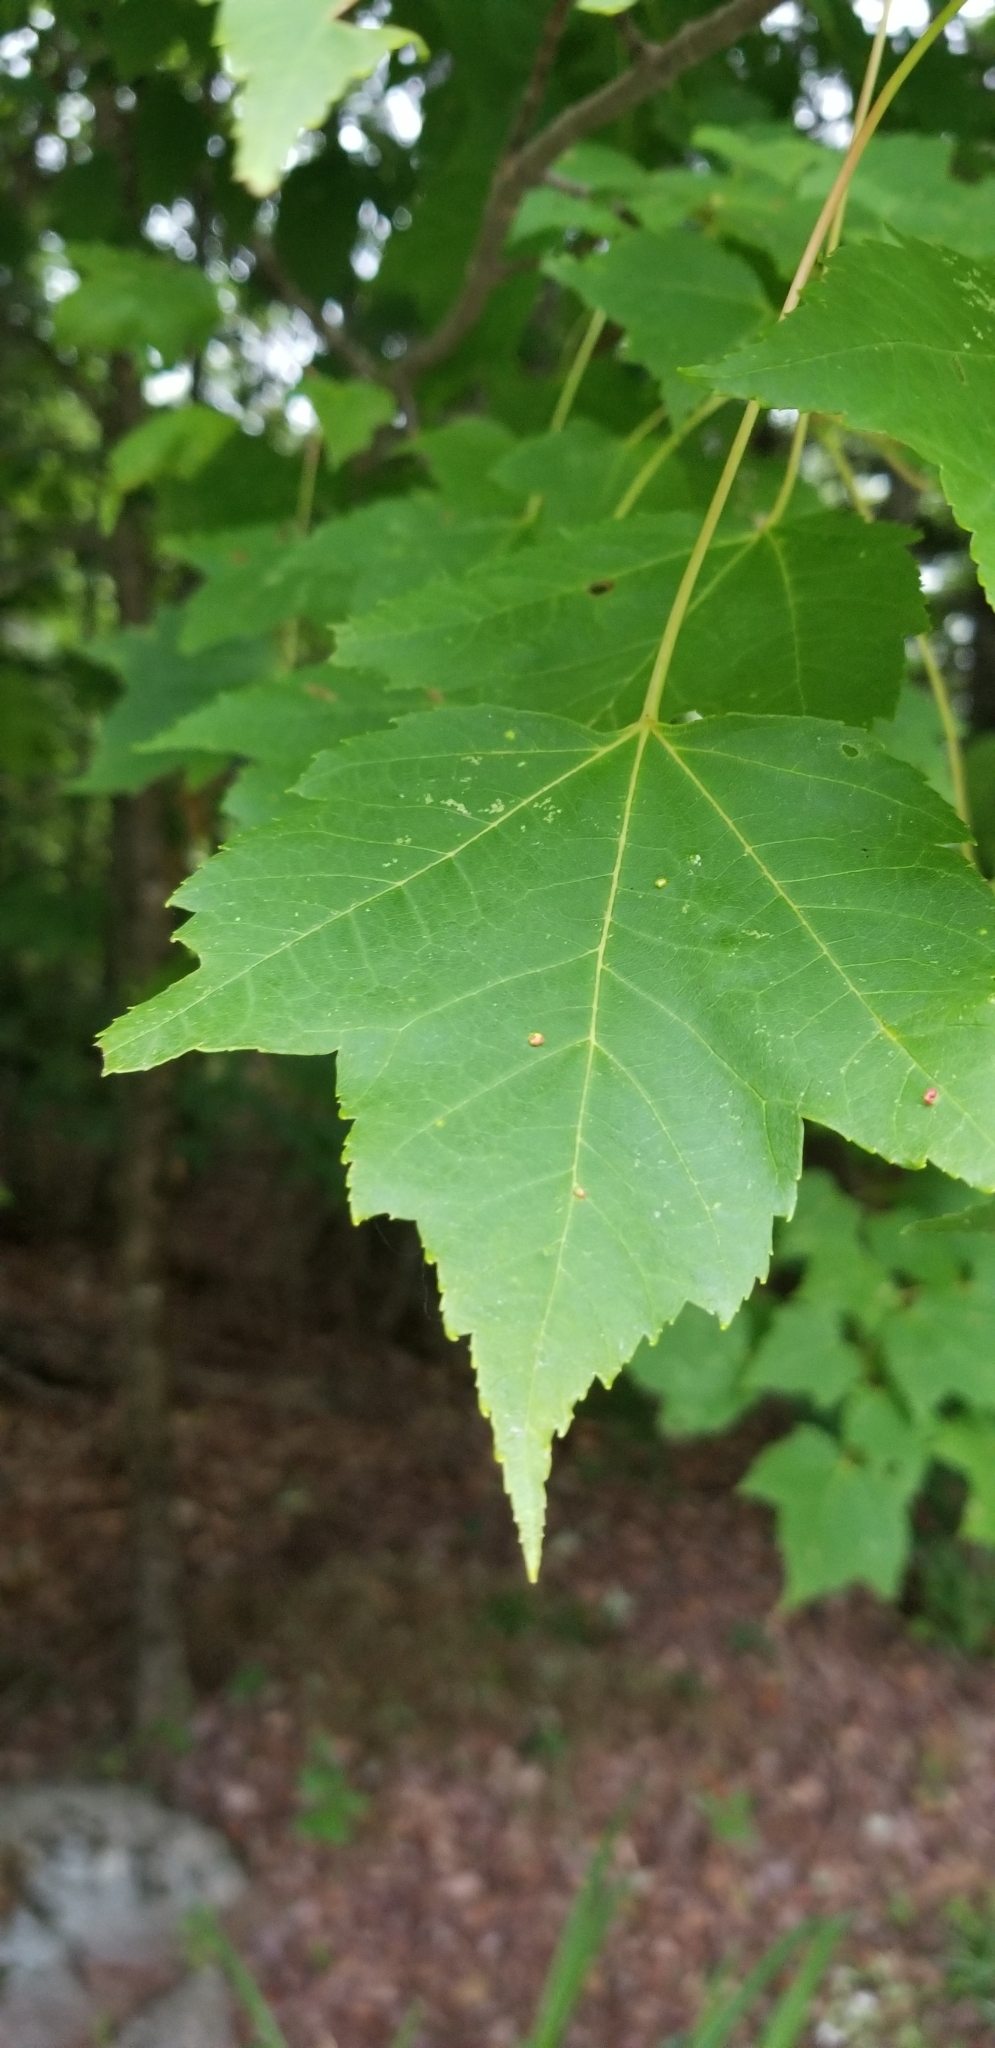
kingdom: Animalia
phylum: Arthropoda
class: Arachnida
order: Trombidiformes
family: Eriophyidae
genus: Vasates
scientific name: Vasates quadripedes
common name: Maple bladder gall mite
